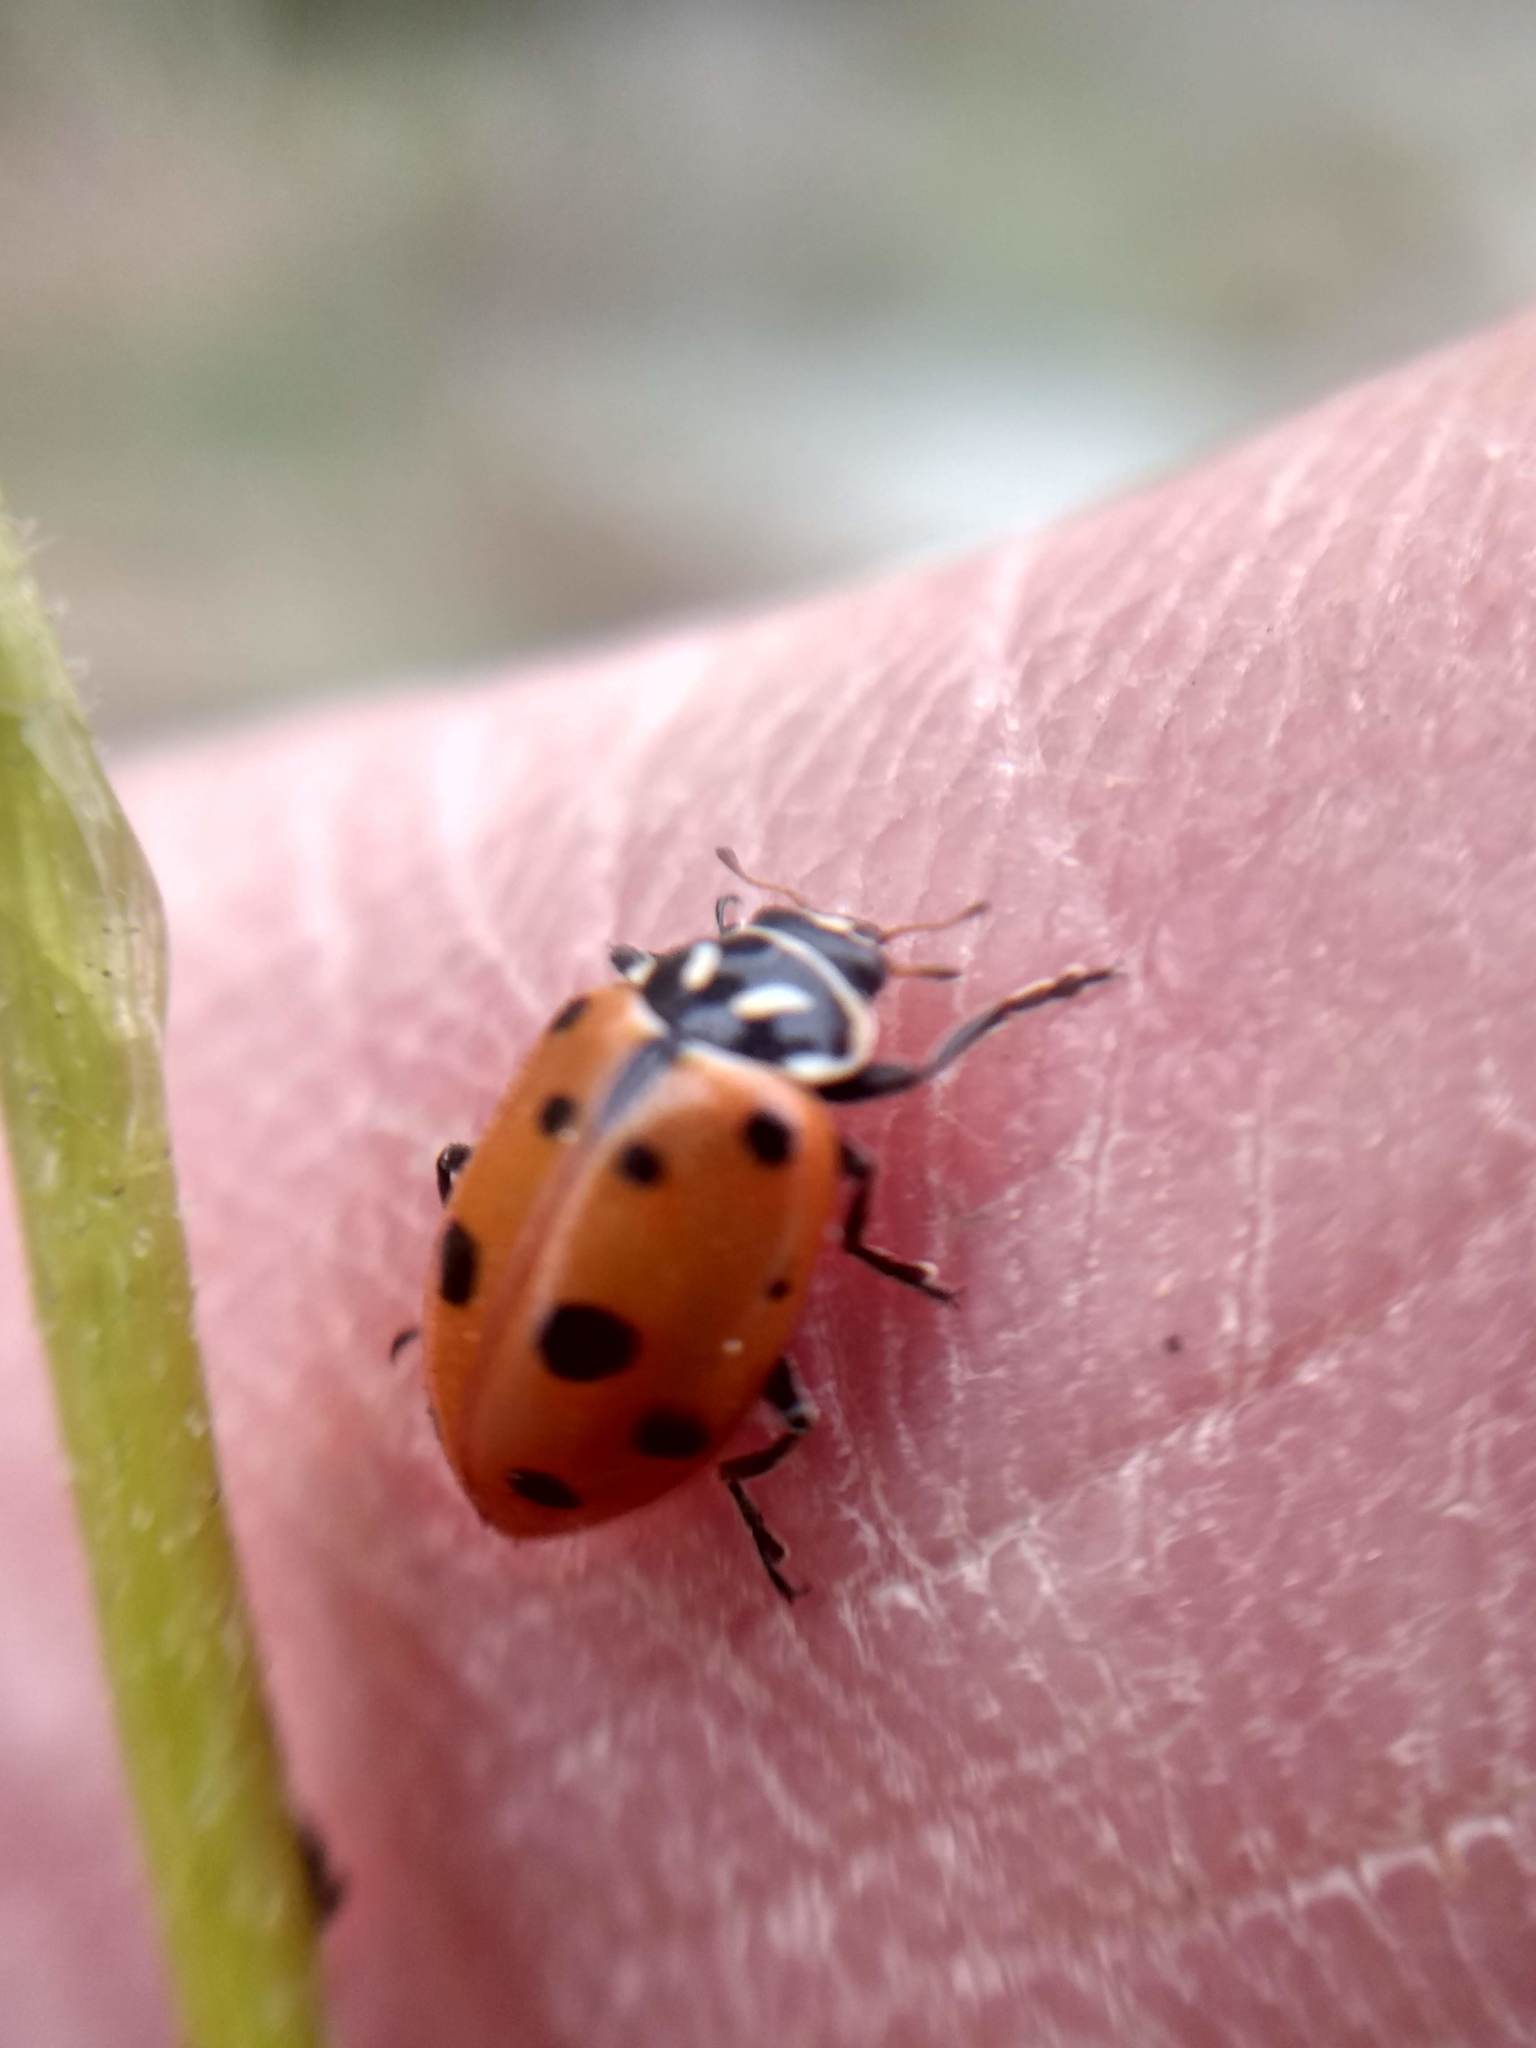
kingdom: Animalia
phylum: Arthropoda
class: Insecta
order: Coleoptera
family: Coccinellidae
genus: Hippodamia
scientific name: Hippodamia convergens
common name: Convergent lady beetle
